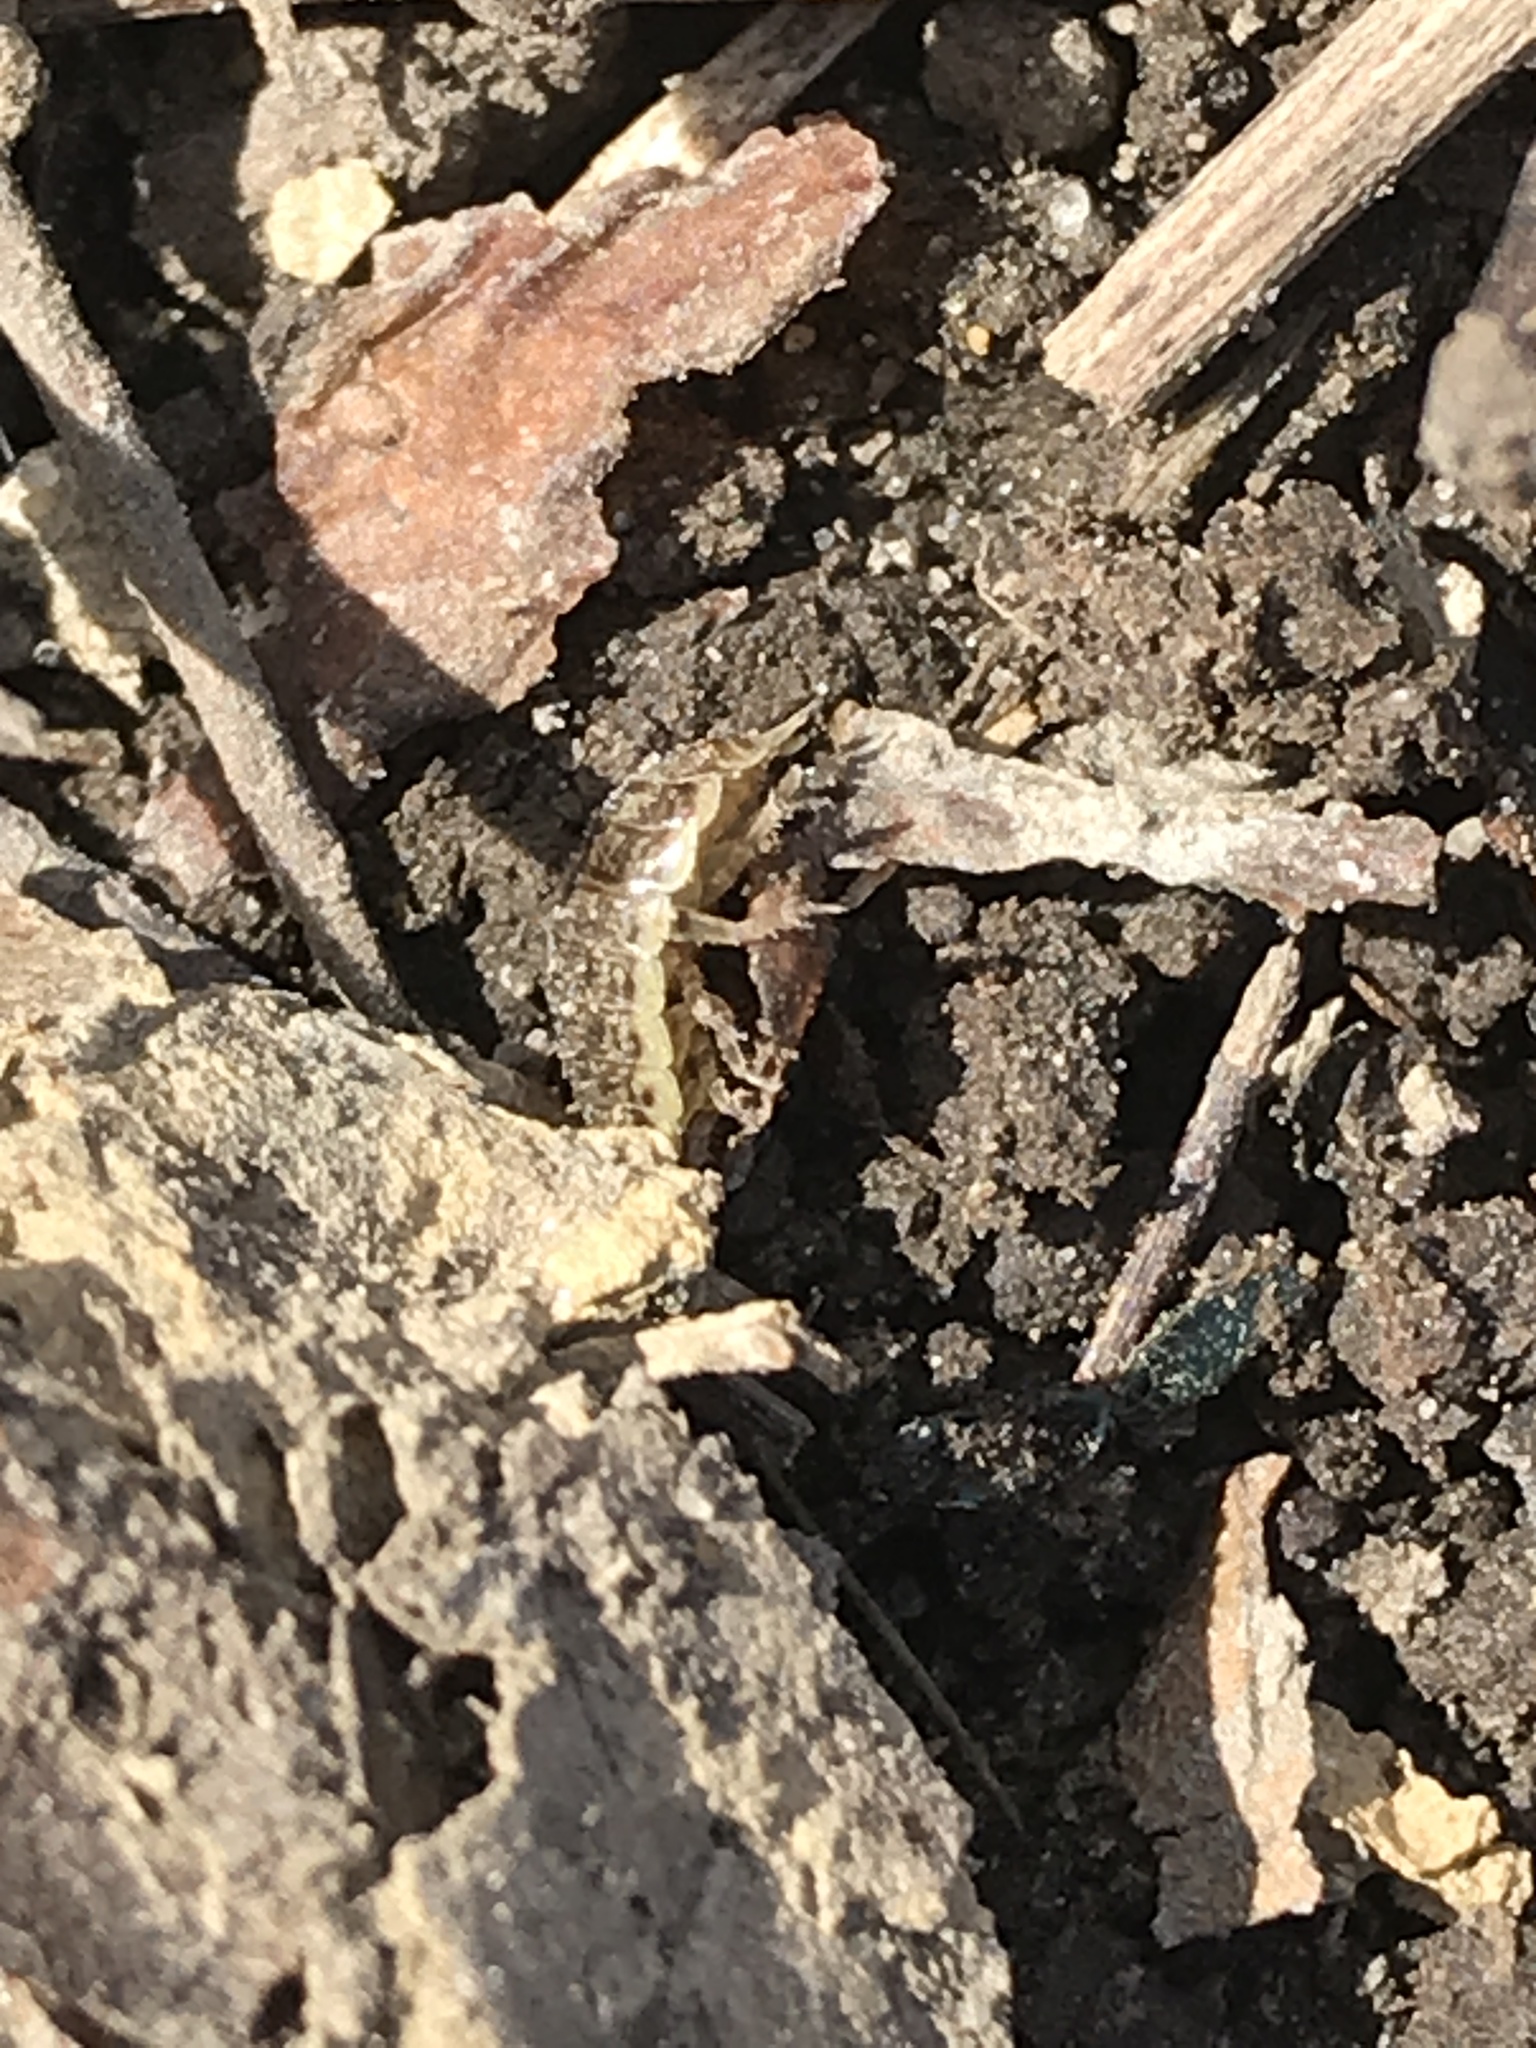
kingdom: Animalia
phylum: Arthropoda
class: Malacostraca
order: Isopoda
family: Philosciidae
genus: Philoscia
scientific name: Philoscia muscorum
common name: Common striped woodlouse
